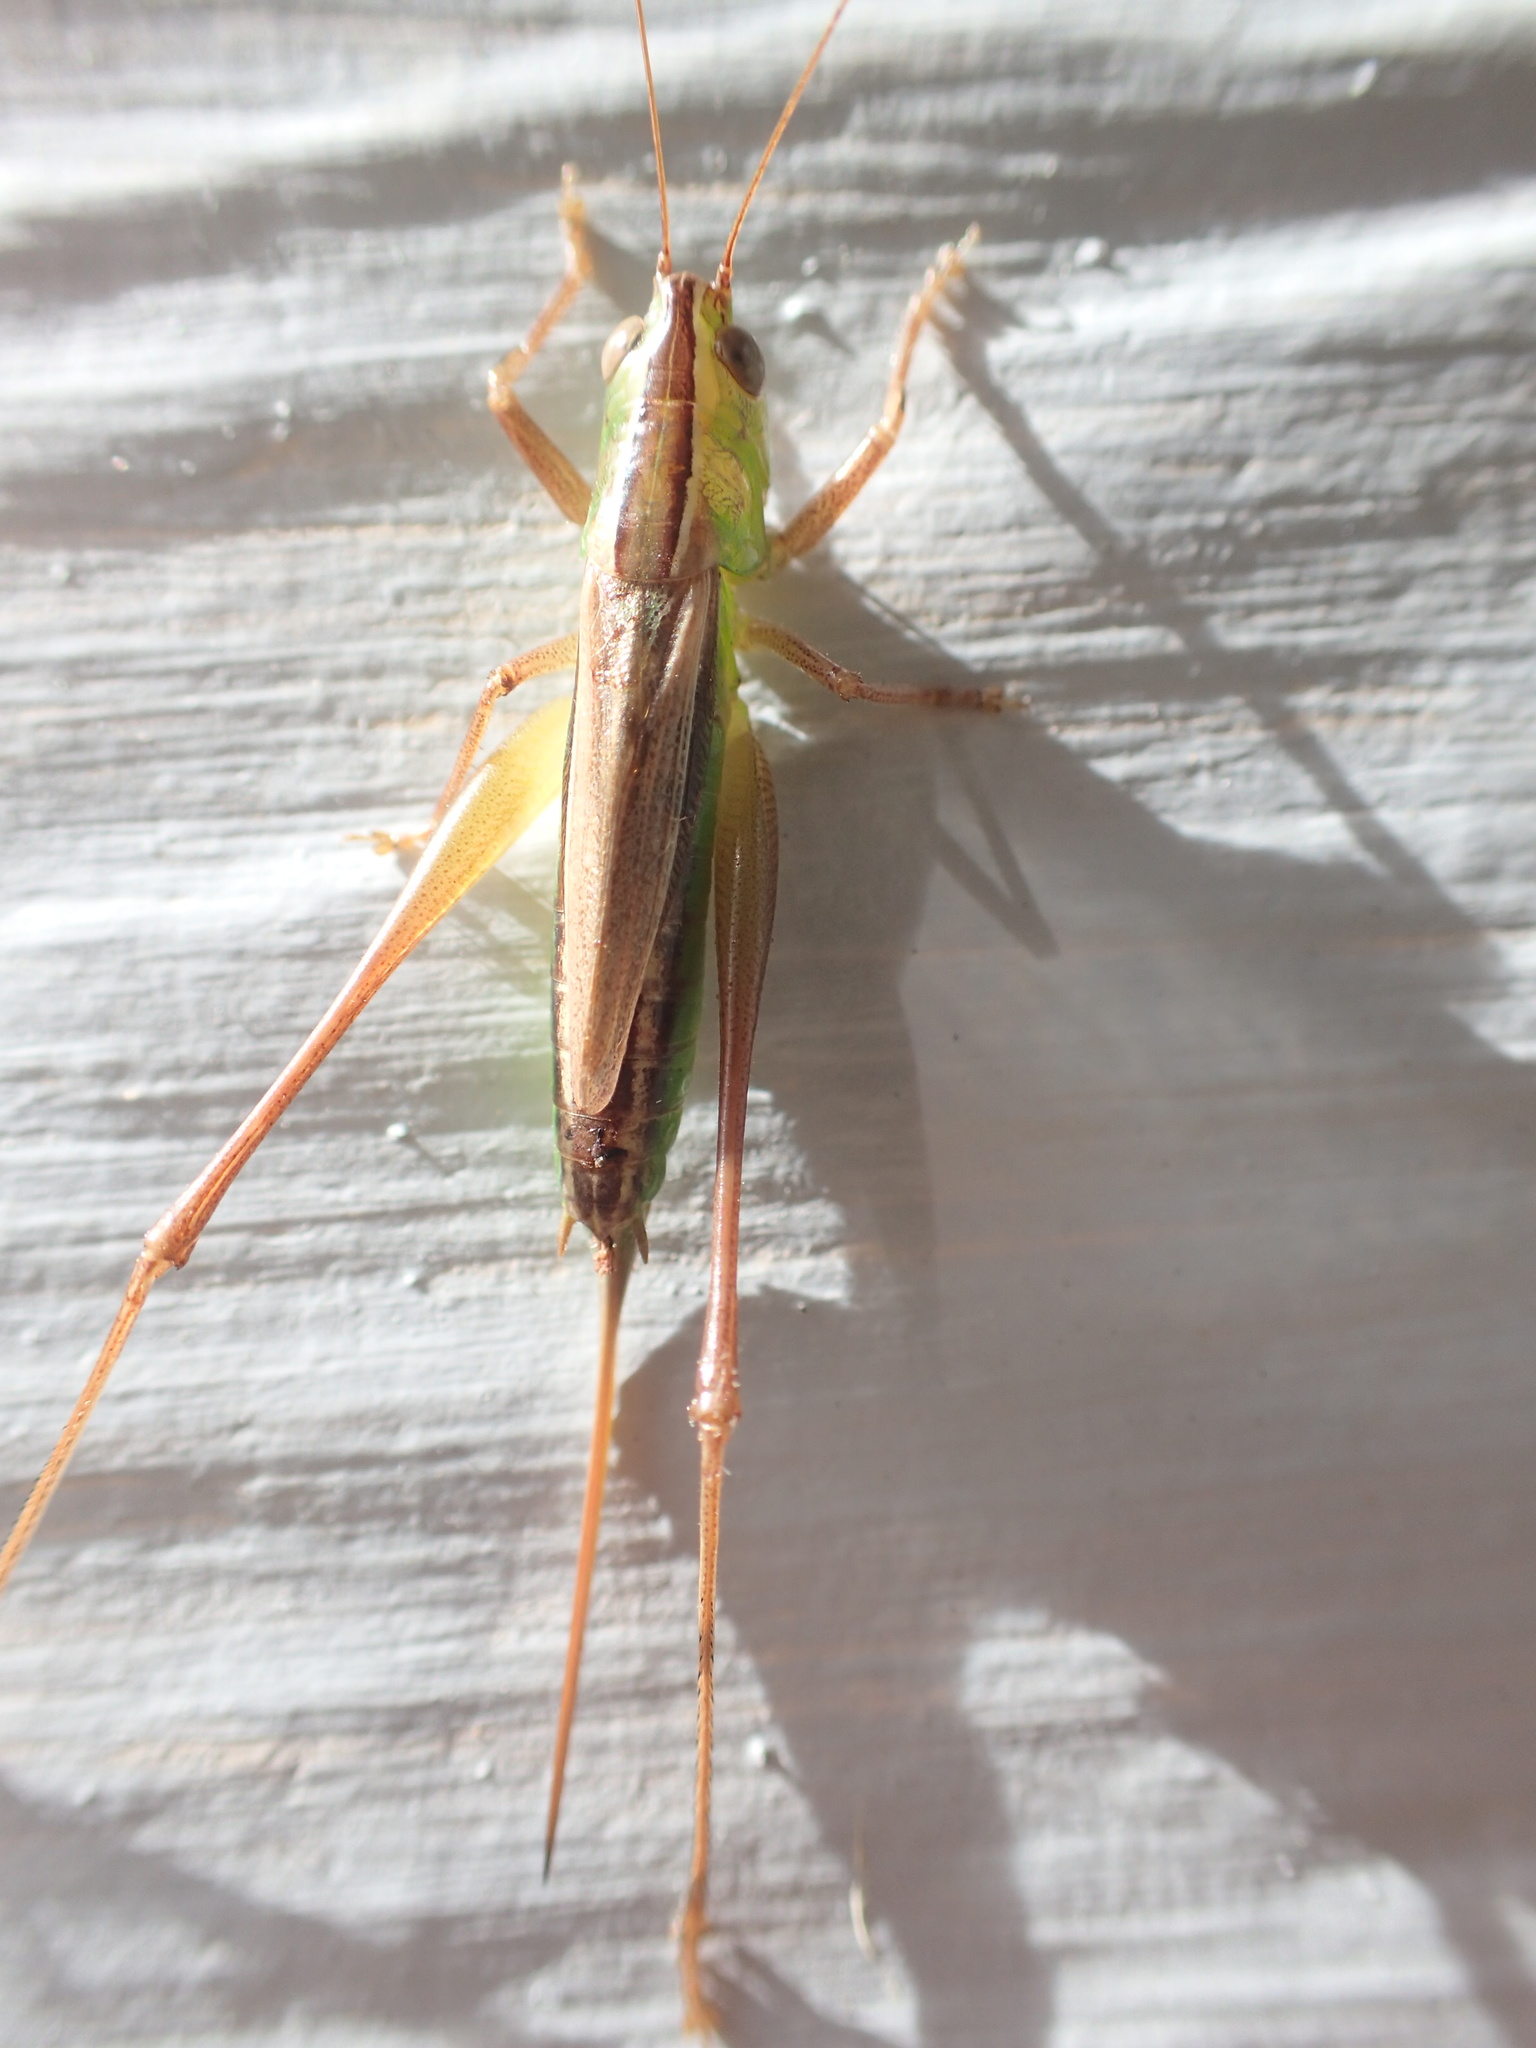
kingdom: Animalia
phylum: Arthropoda
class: Insecta
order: Orthoptera
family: Tettigoniidae
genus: Conocephalus
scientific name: Conocephalus albescens
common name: Whitish meadow katydid
